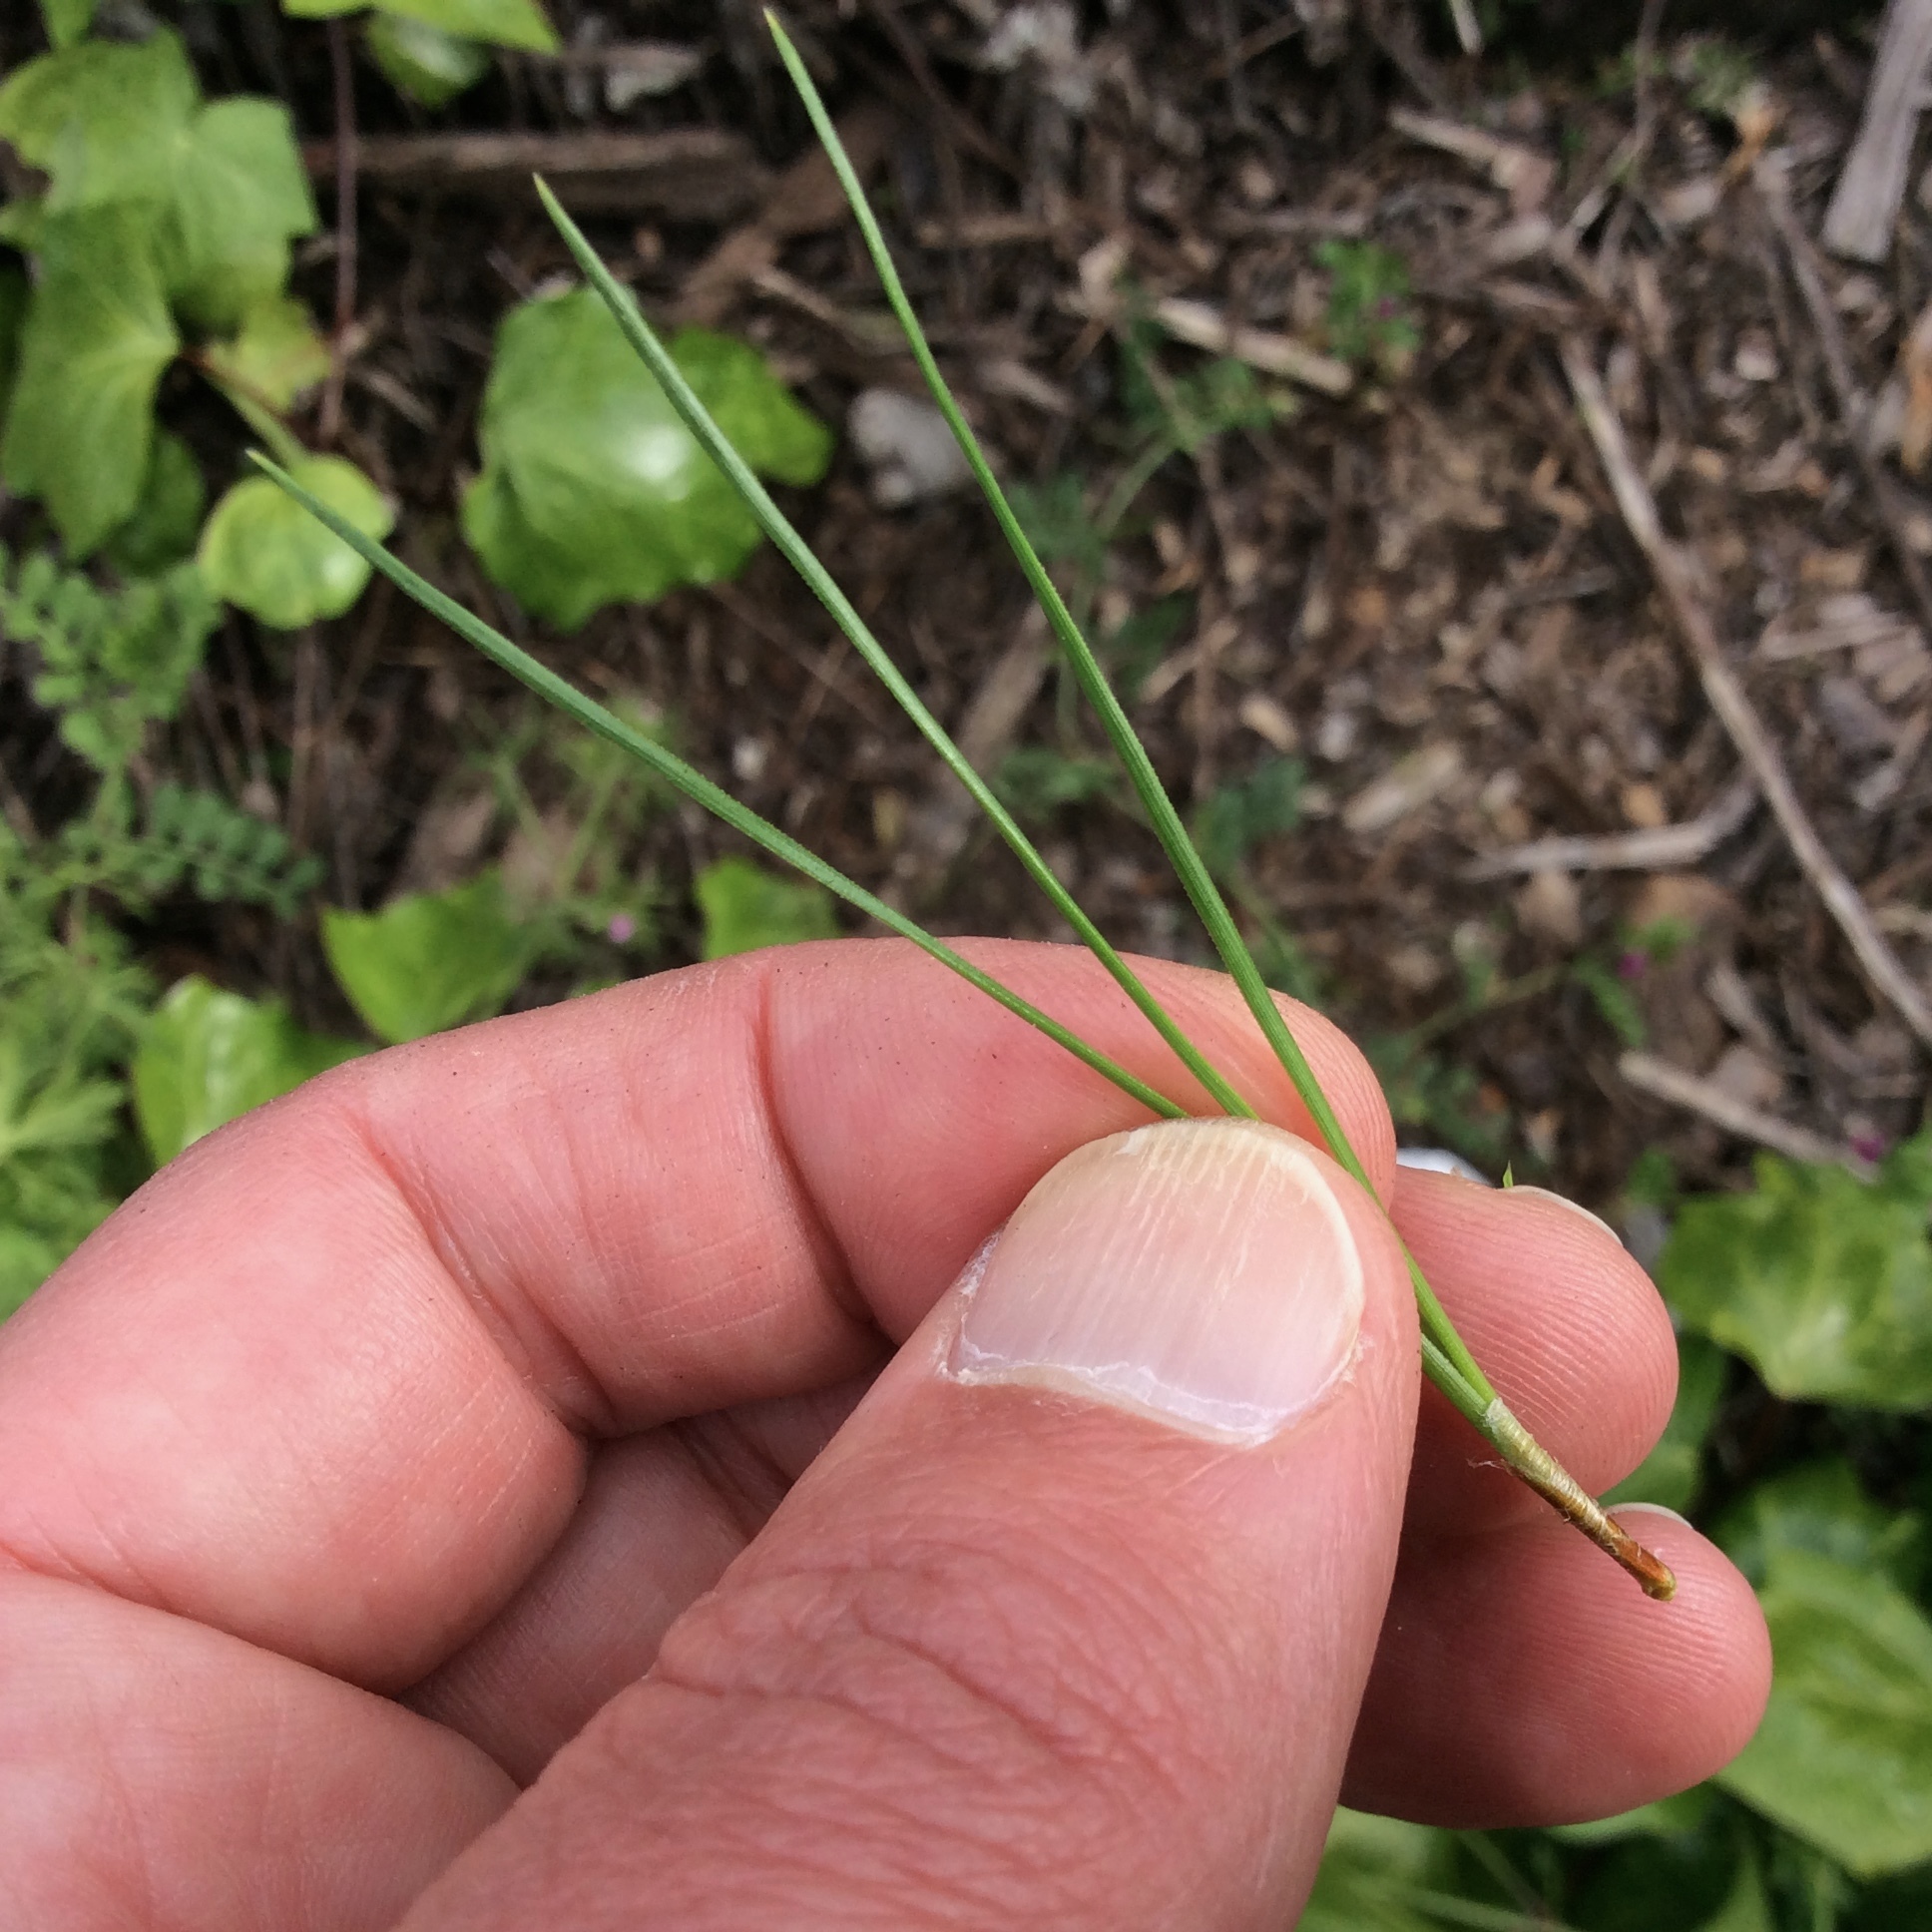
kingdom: Plantae
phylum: Tracheophyta
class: Pinopsida
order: Pinales
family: Pinaceae
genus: Pinus
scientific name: Pinus radiata
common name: Monterey pine
